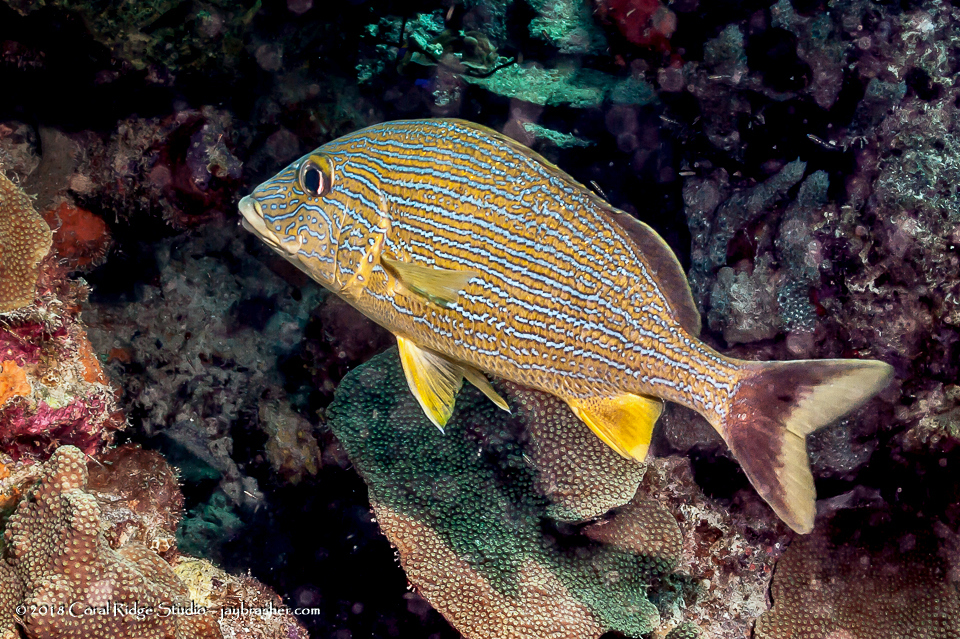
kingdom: Animalia
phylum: Chordata
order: Perciformes
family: Haemulidae
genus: Haemulon
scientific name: Haemulon sciurus
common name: Bluestriped grunt
